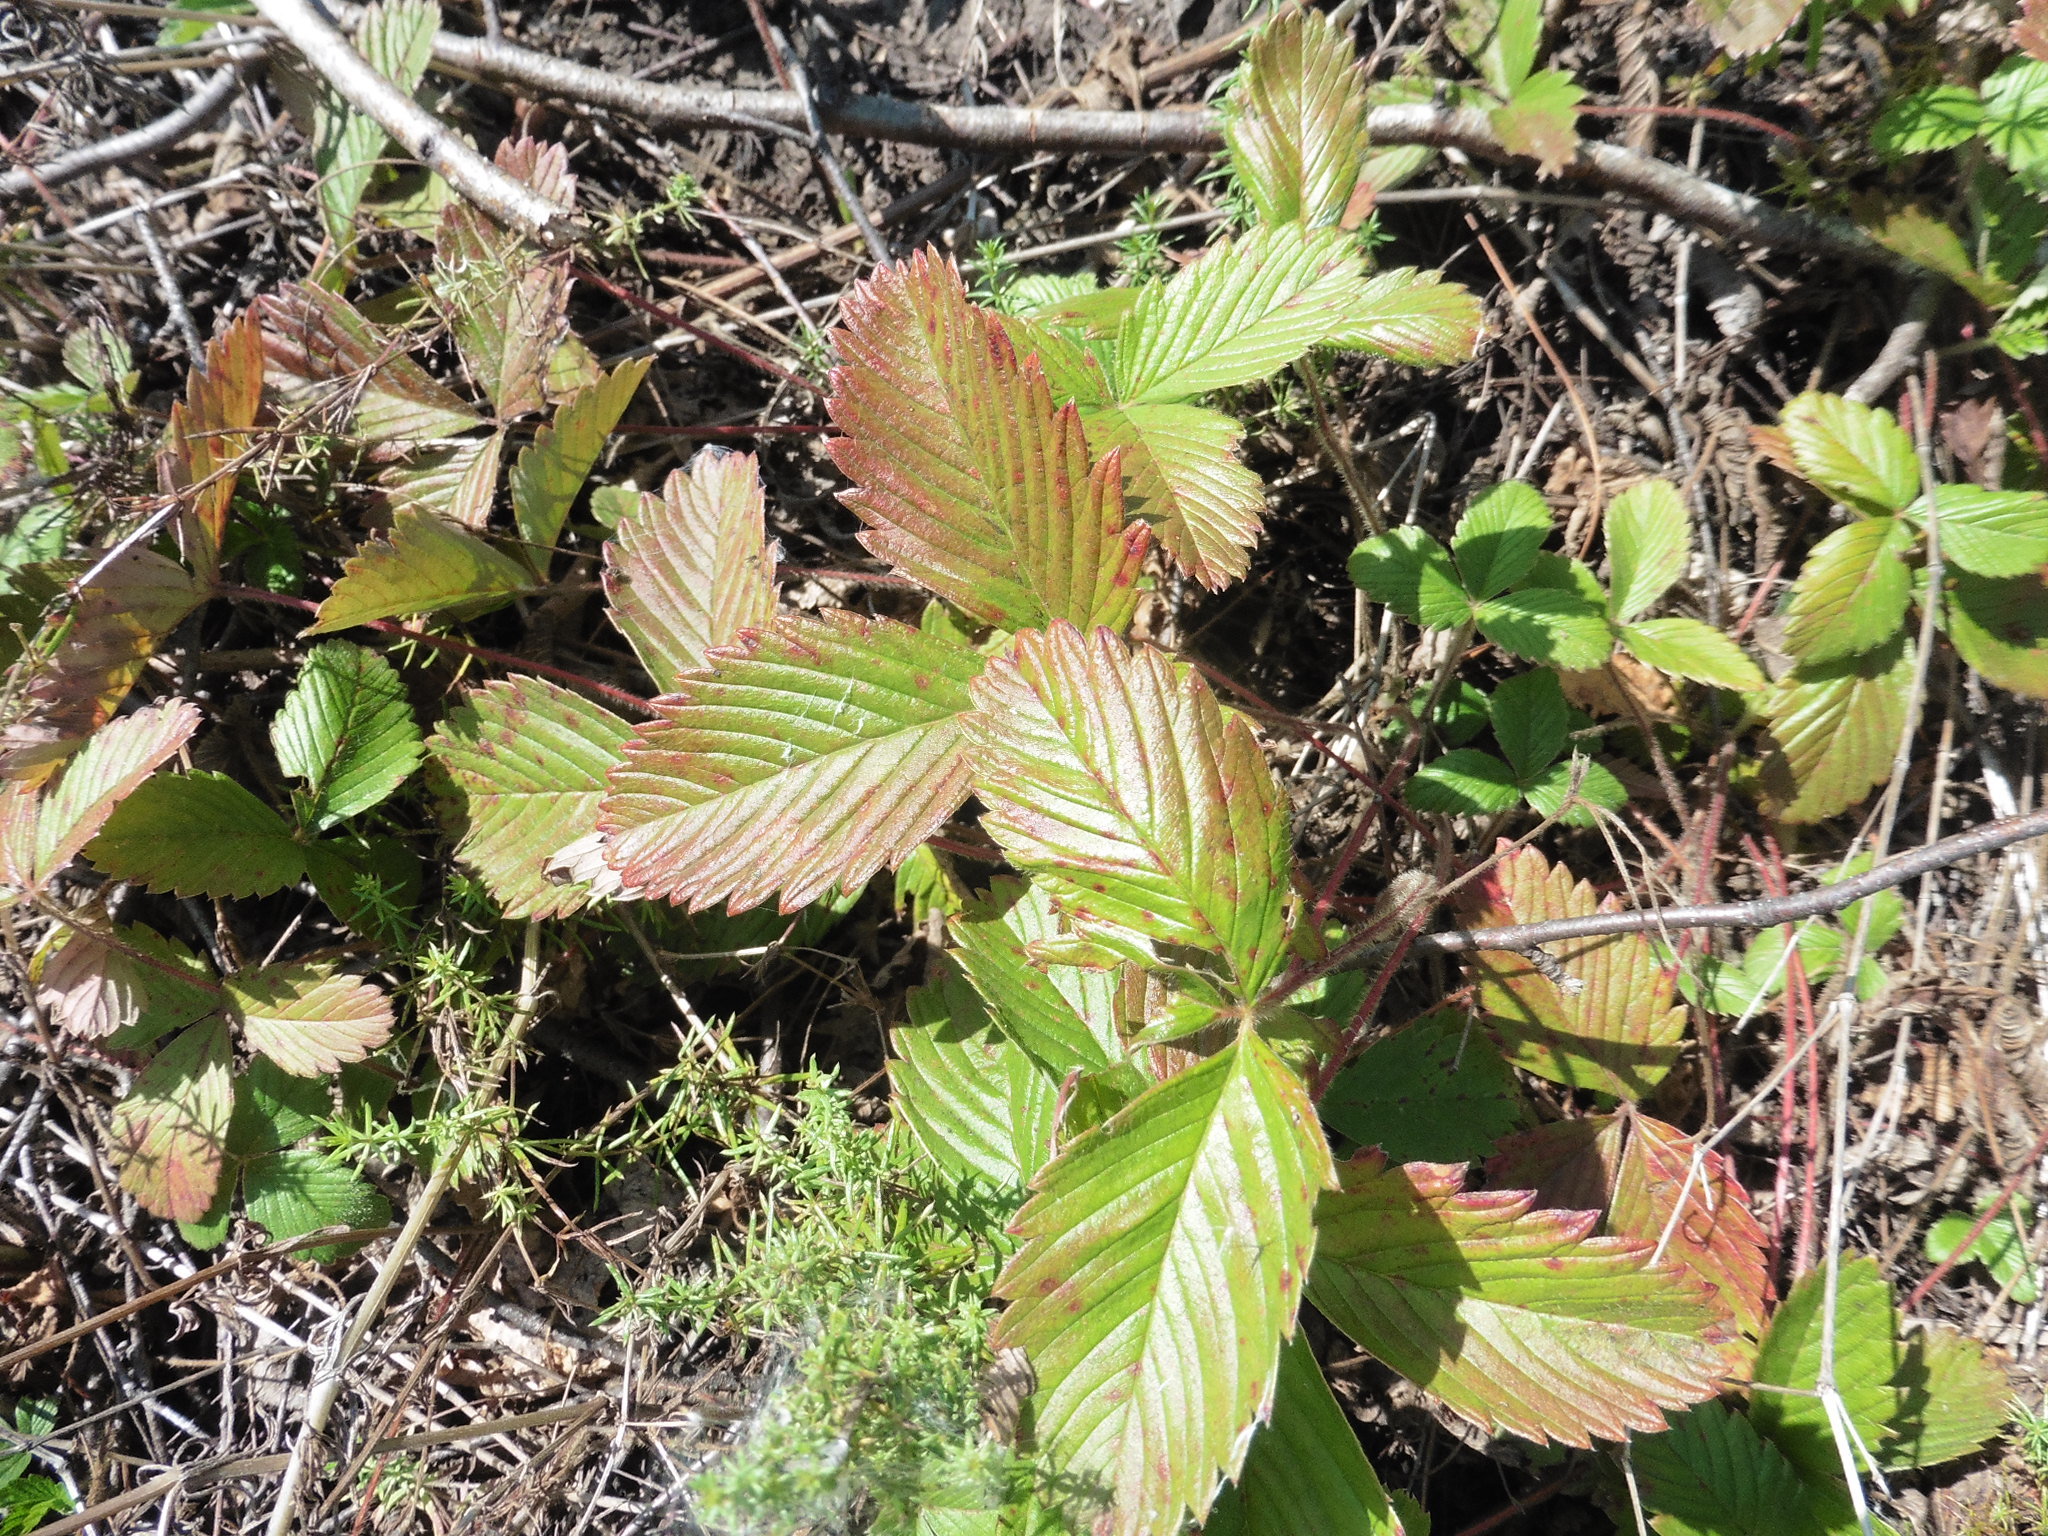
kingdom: Plantae
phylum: Tracheophyta
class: Magnoliopsida
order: Rosales
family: Rosaceae
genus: Fragaria
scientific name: Fragaria viridis
